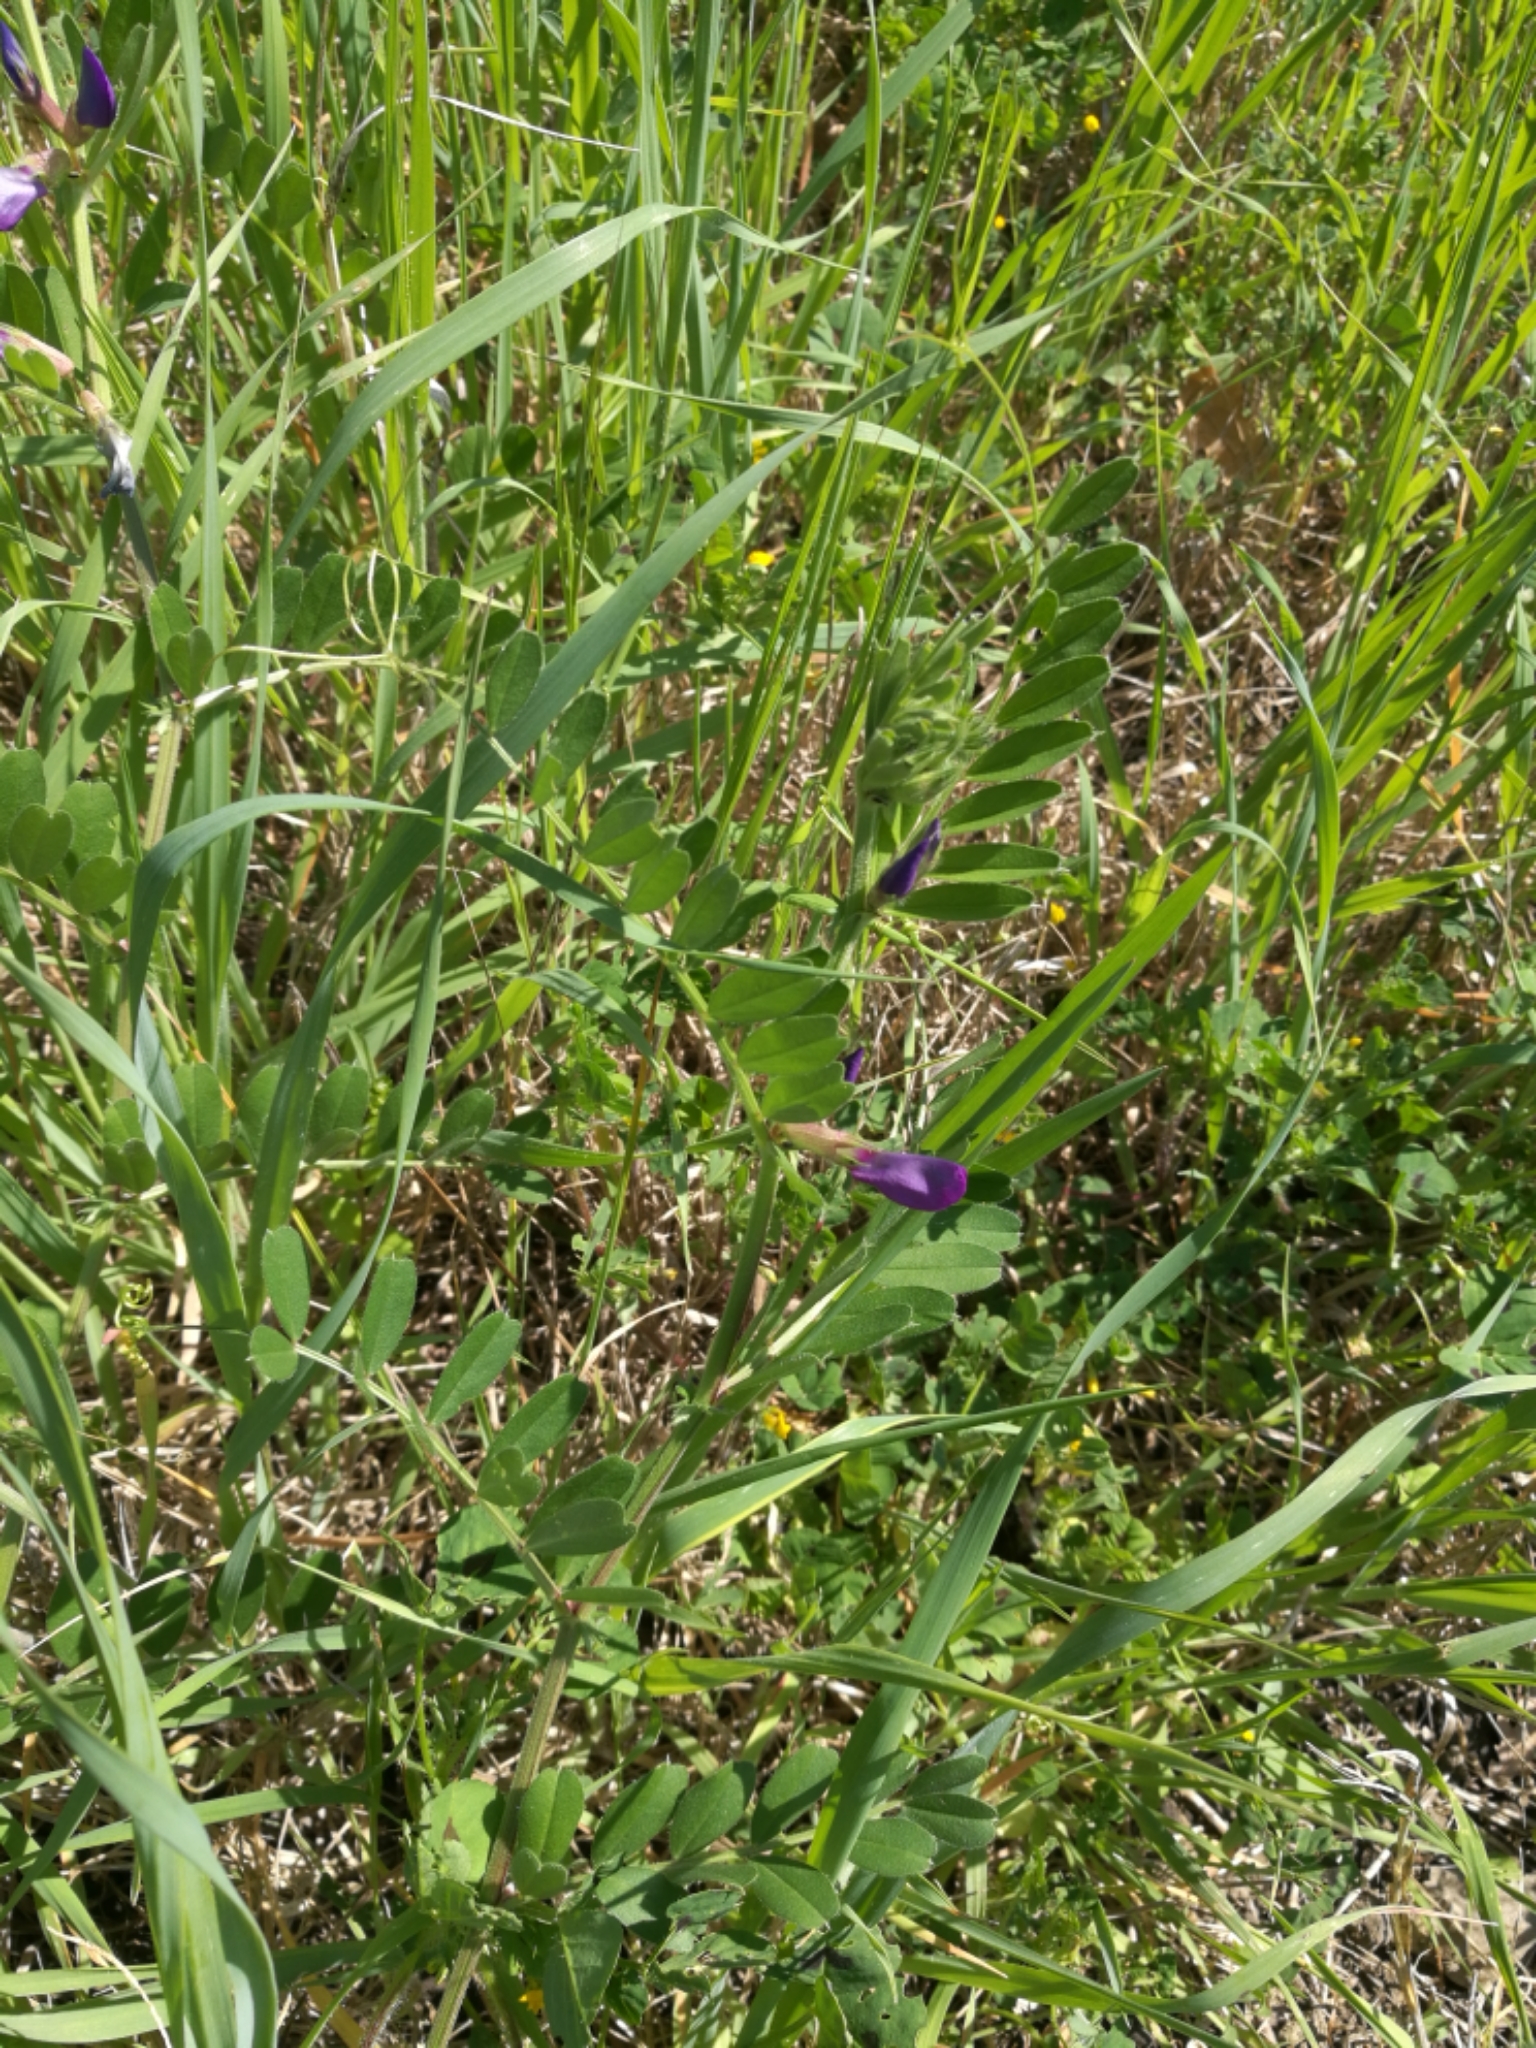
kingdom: Plantae
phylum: Tracheophyta
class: Magnoliopsida
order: Fabales
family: Fabaceae
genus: Vicia
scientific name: Vicia sativa
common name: Garden vetch
